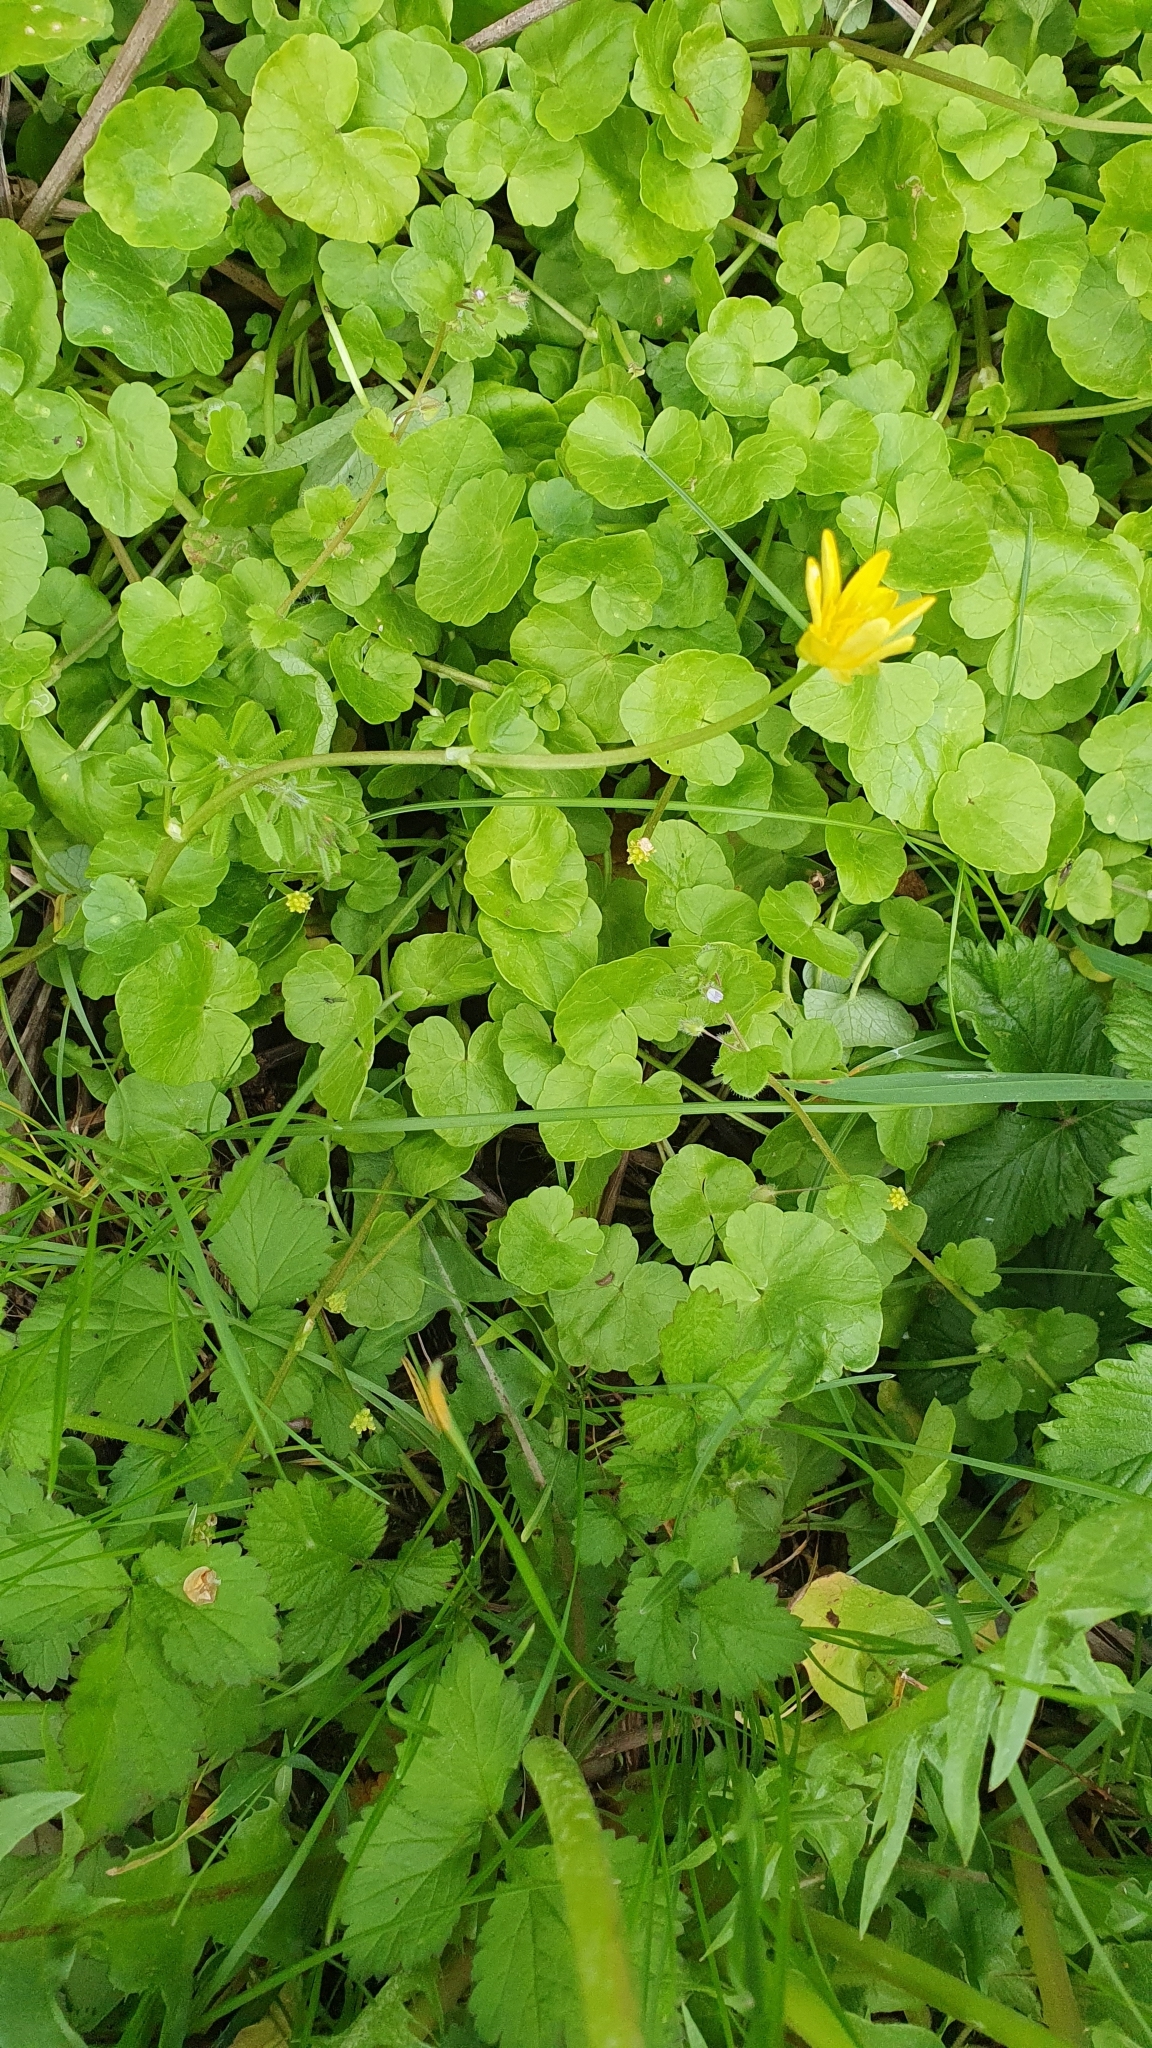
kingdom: Plantae
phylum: Tracheophyta
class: Magnoliopsida
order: Ranunculales
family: Ranunculaceae
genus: Ficaria
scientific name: Ficaria verna
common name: Lesser celandine
